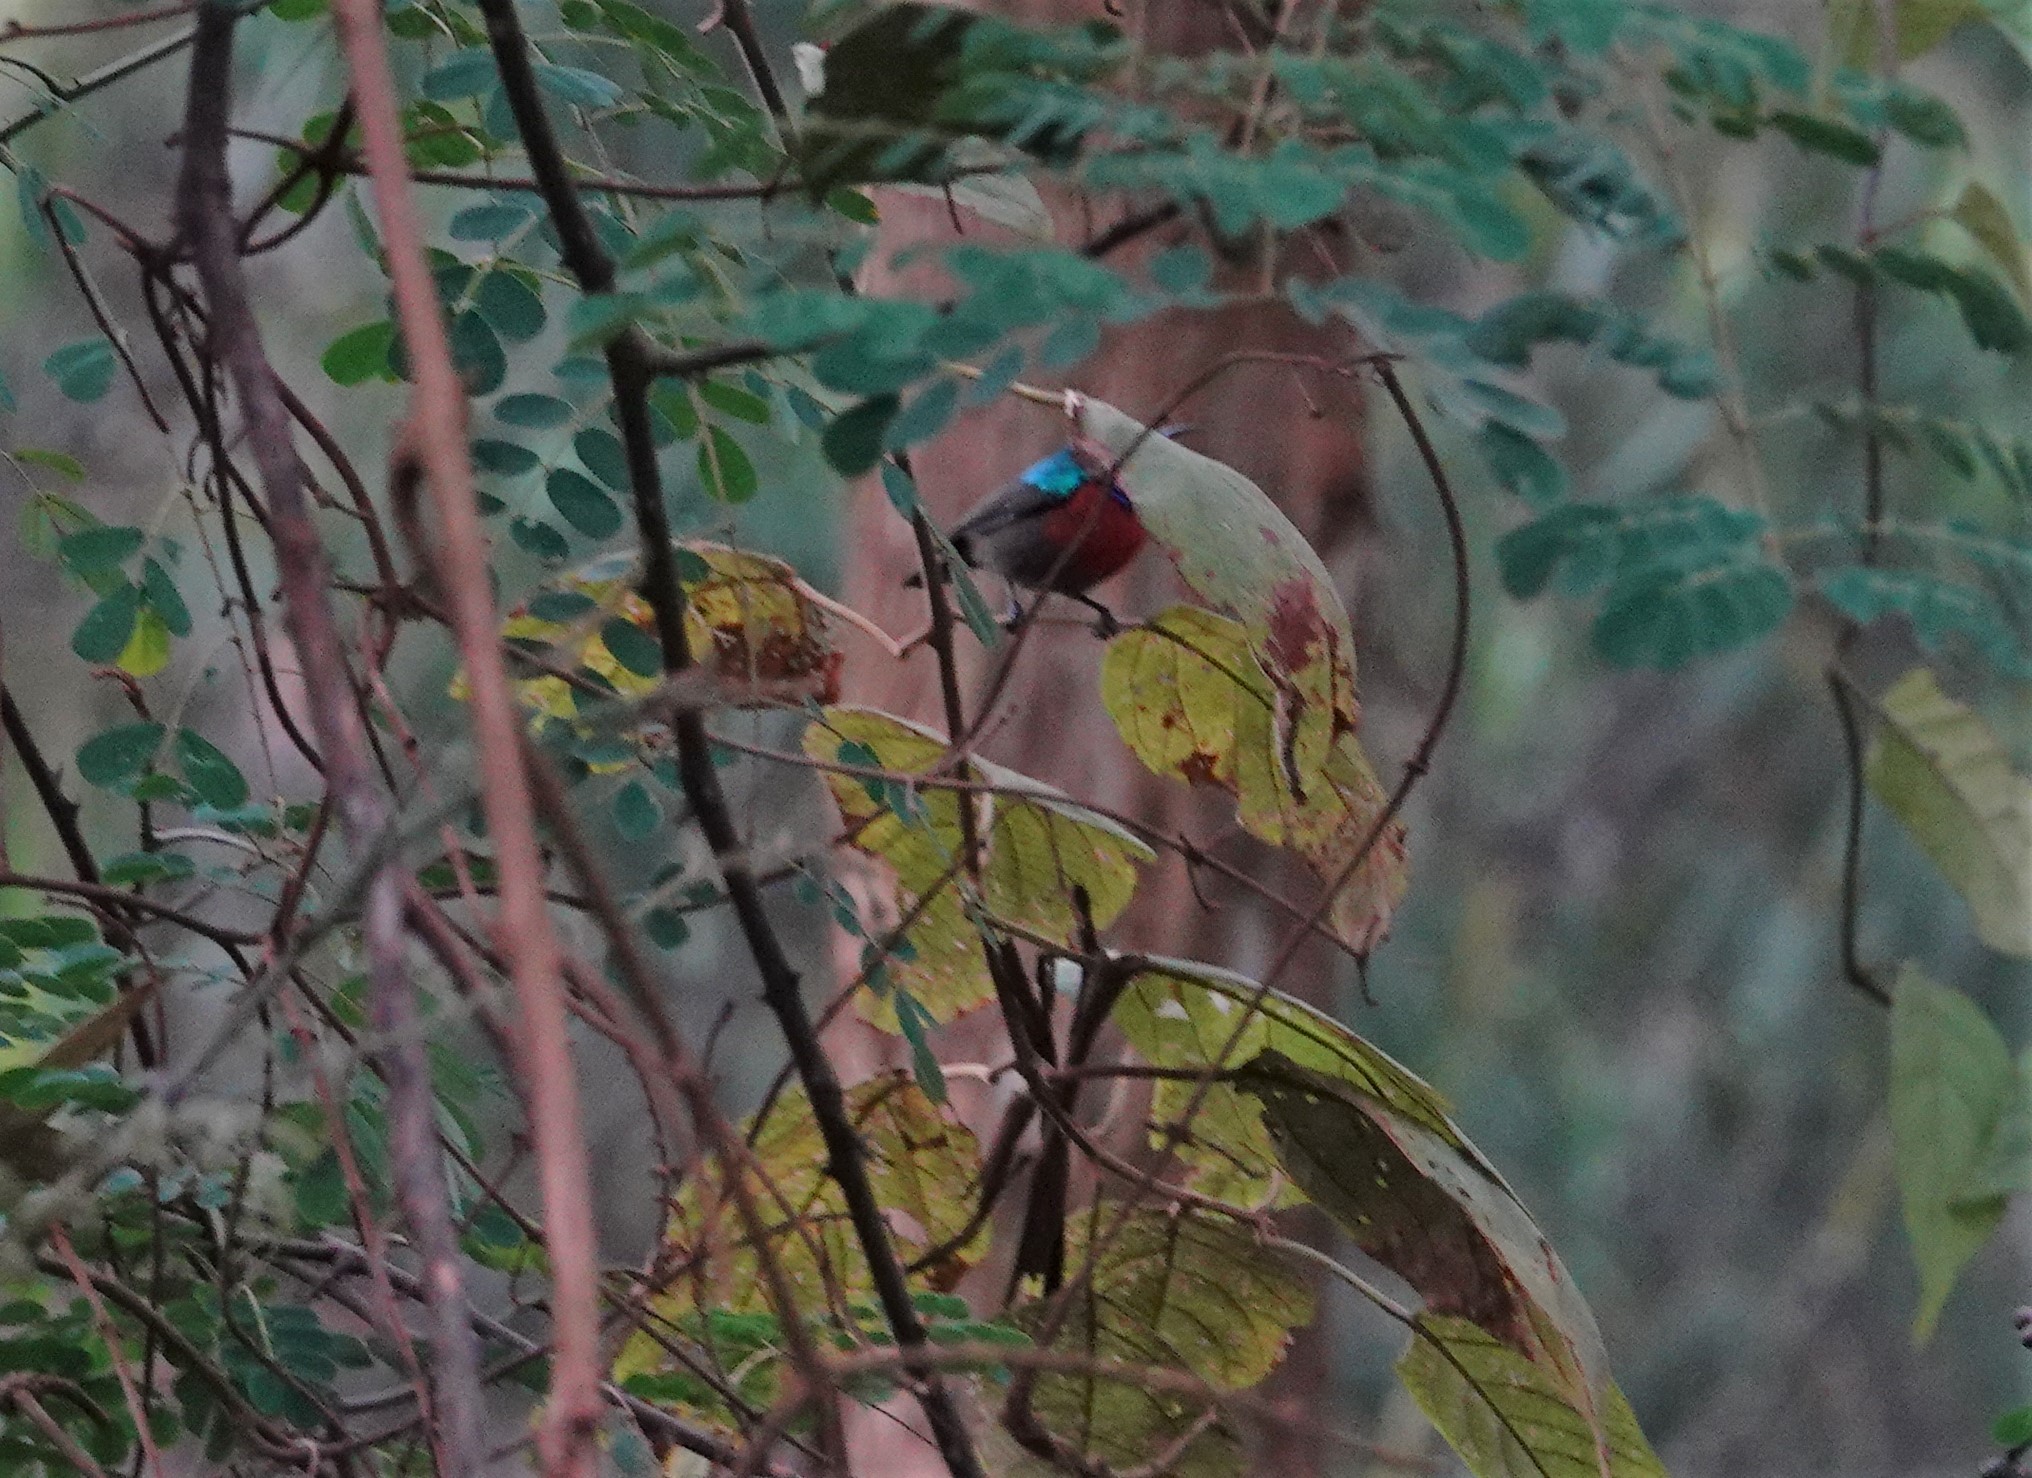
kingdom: Animalia
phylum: Chordata
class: Aves
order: Passeriformes
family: Nectariniidae
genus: Cinnyris
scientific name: Cinnyris chloropygius
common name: Olive-bellied sunbird
